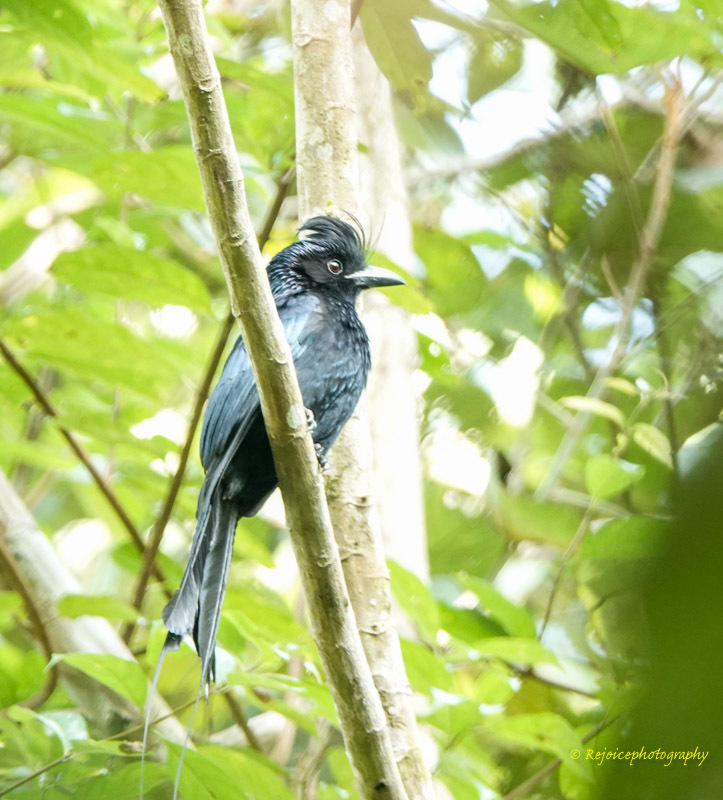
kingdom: Animalia
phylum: Chordata
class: Aves
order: Passeriformes
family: Dicruridae
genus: Dicrurus
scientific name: Dicrurus paradiseus
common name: Greater racket-tailed drongo
